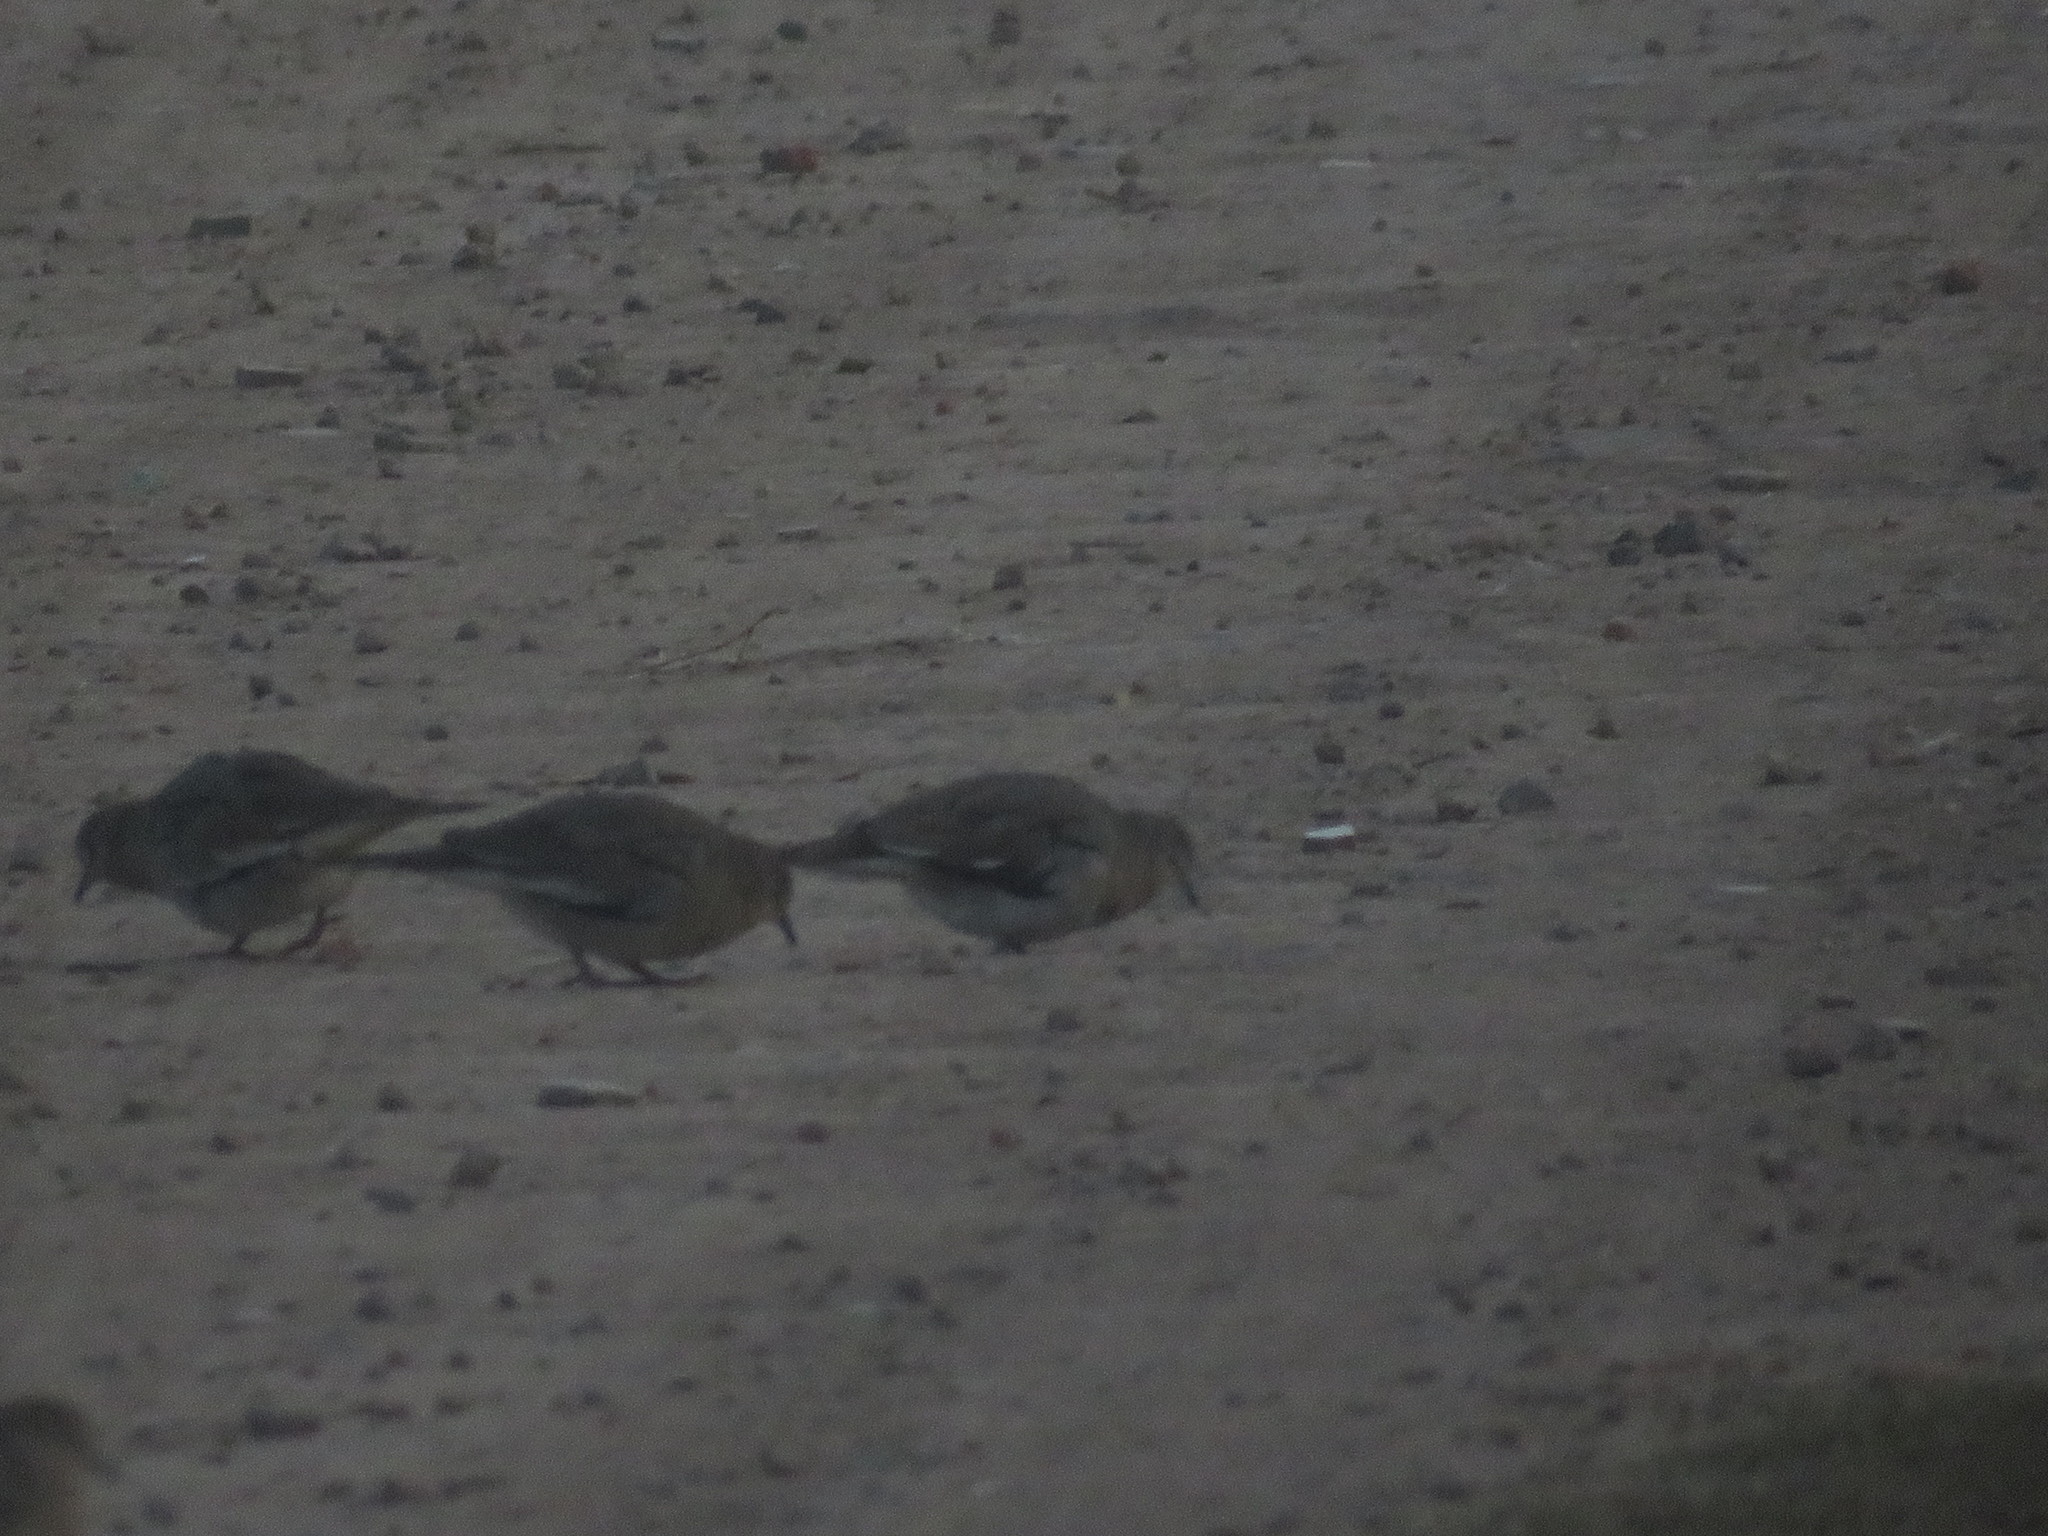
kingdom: Animalia
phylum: Chordata
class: Aves
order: Columbiformes
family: Columbidae
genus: Columbina
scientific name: Columbina picui
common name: Picui ground dove
